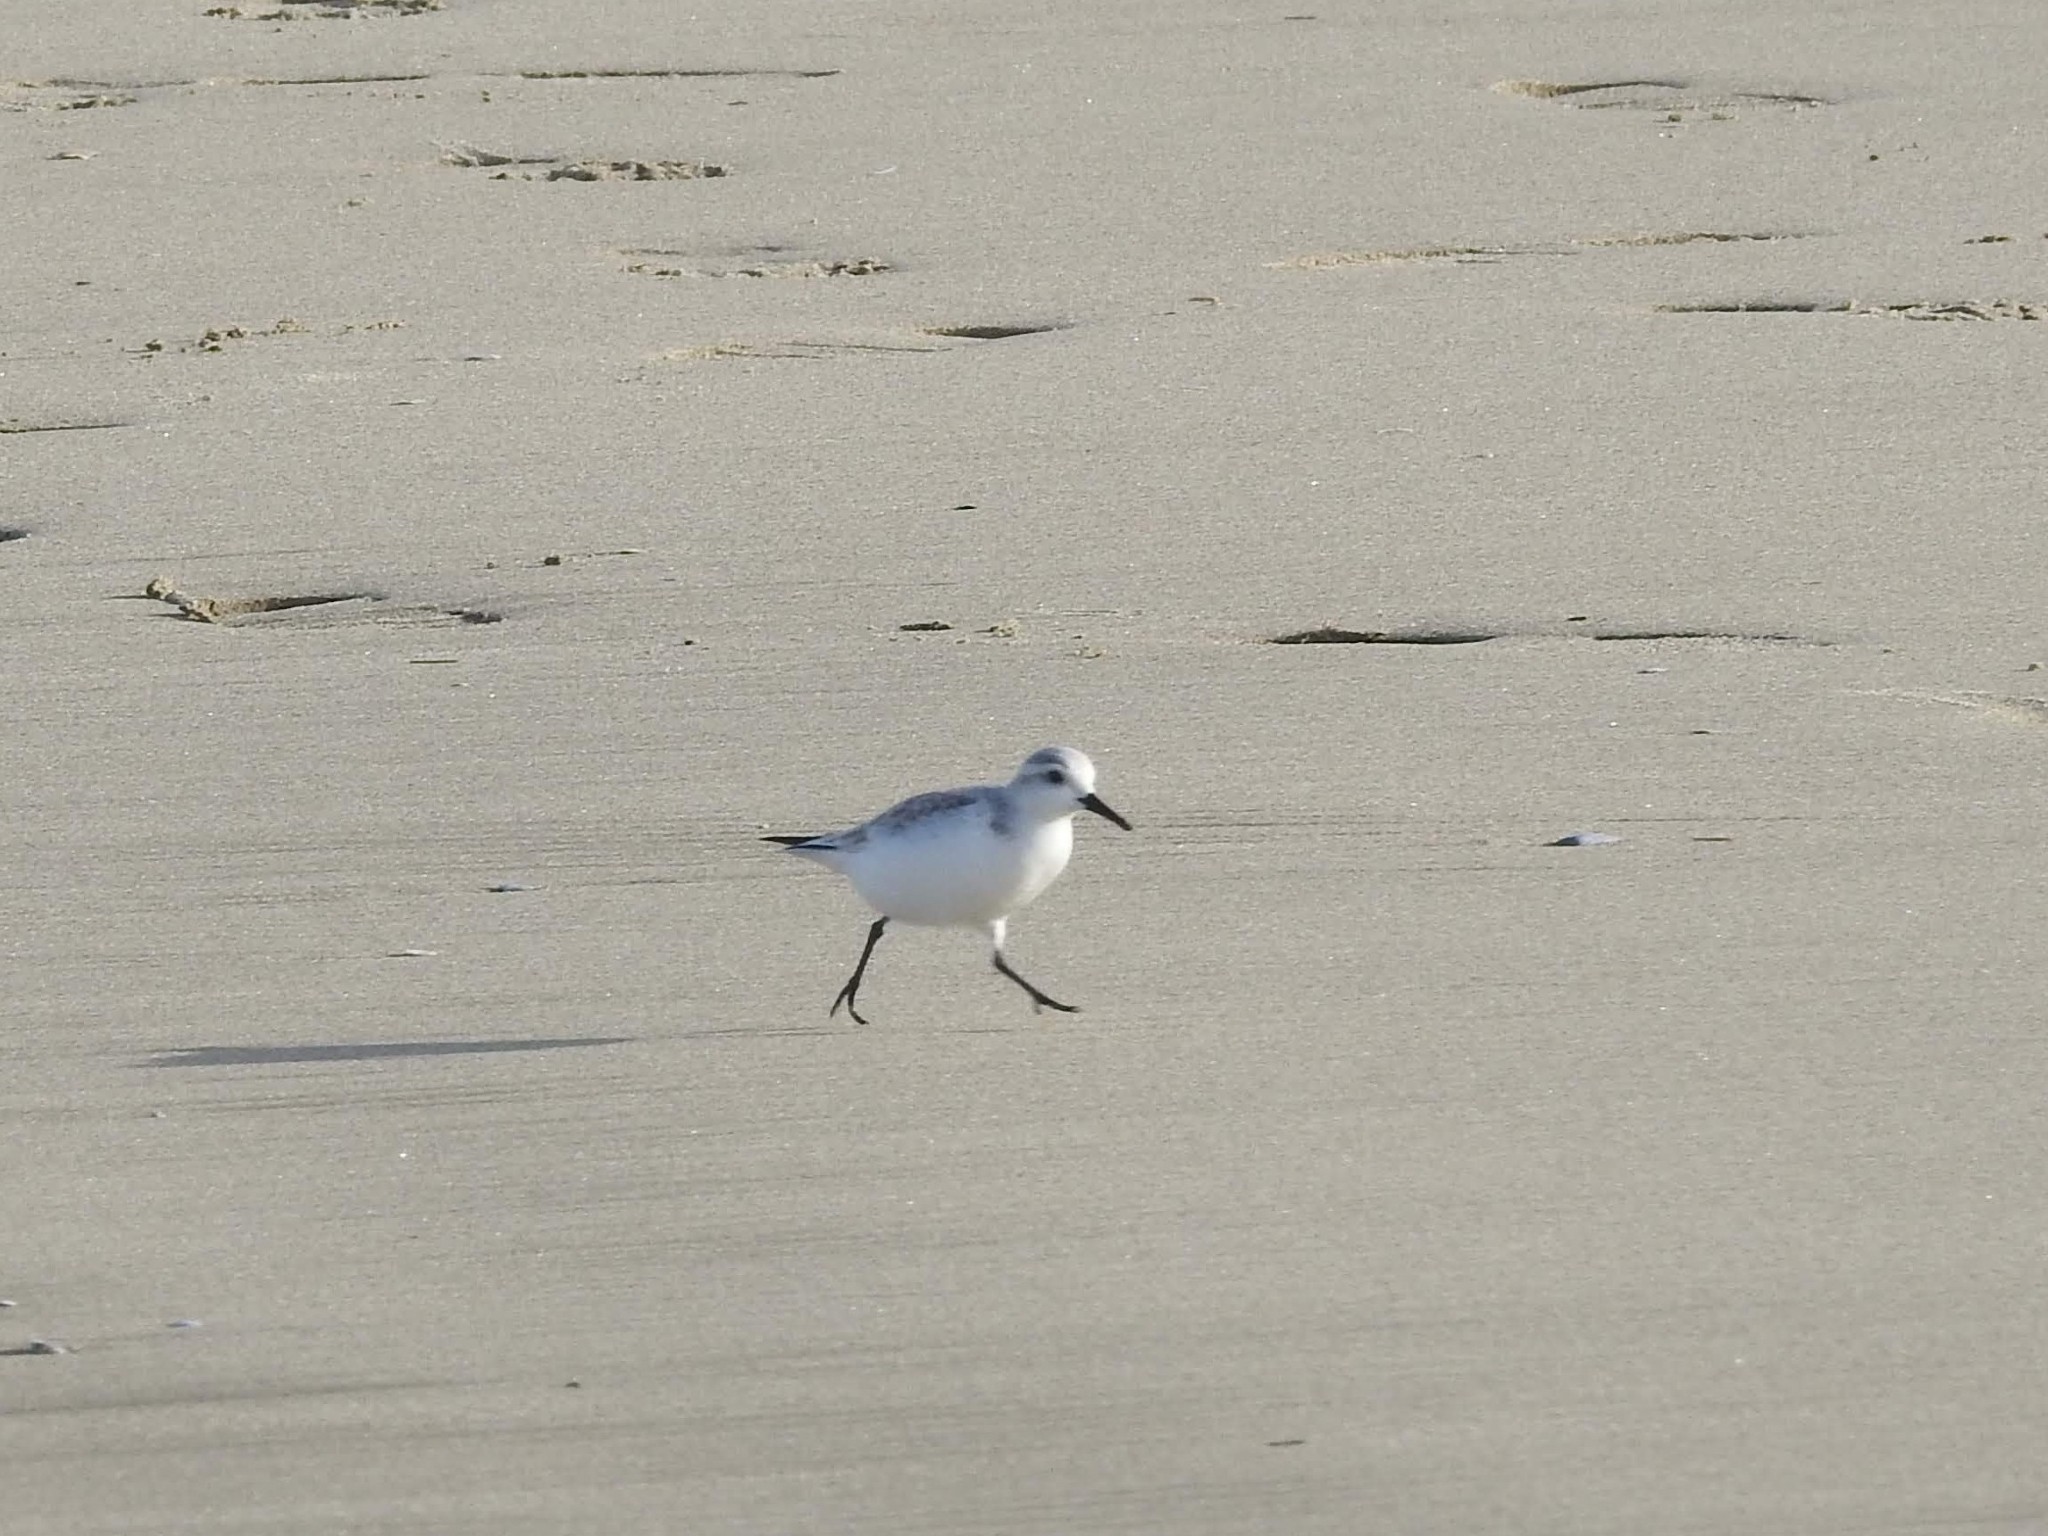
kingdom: Animalia
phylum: Chordata
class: Aves
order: Charadriiformes
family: Scolopacidae
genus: Calidris
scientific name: Calidris alba
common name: Sanderling
